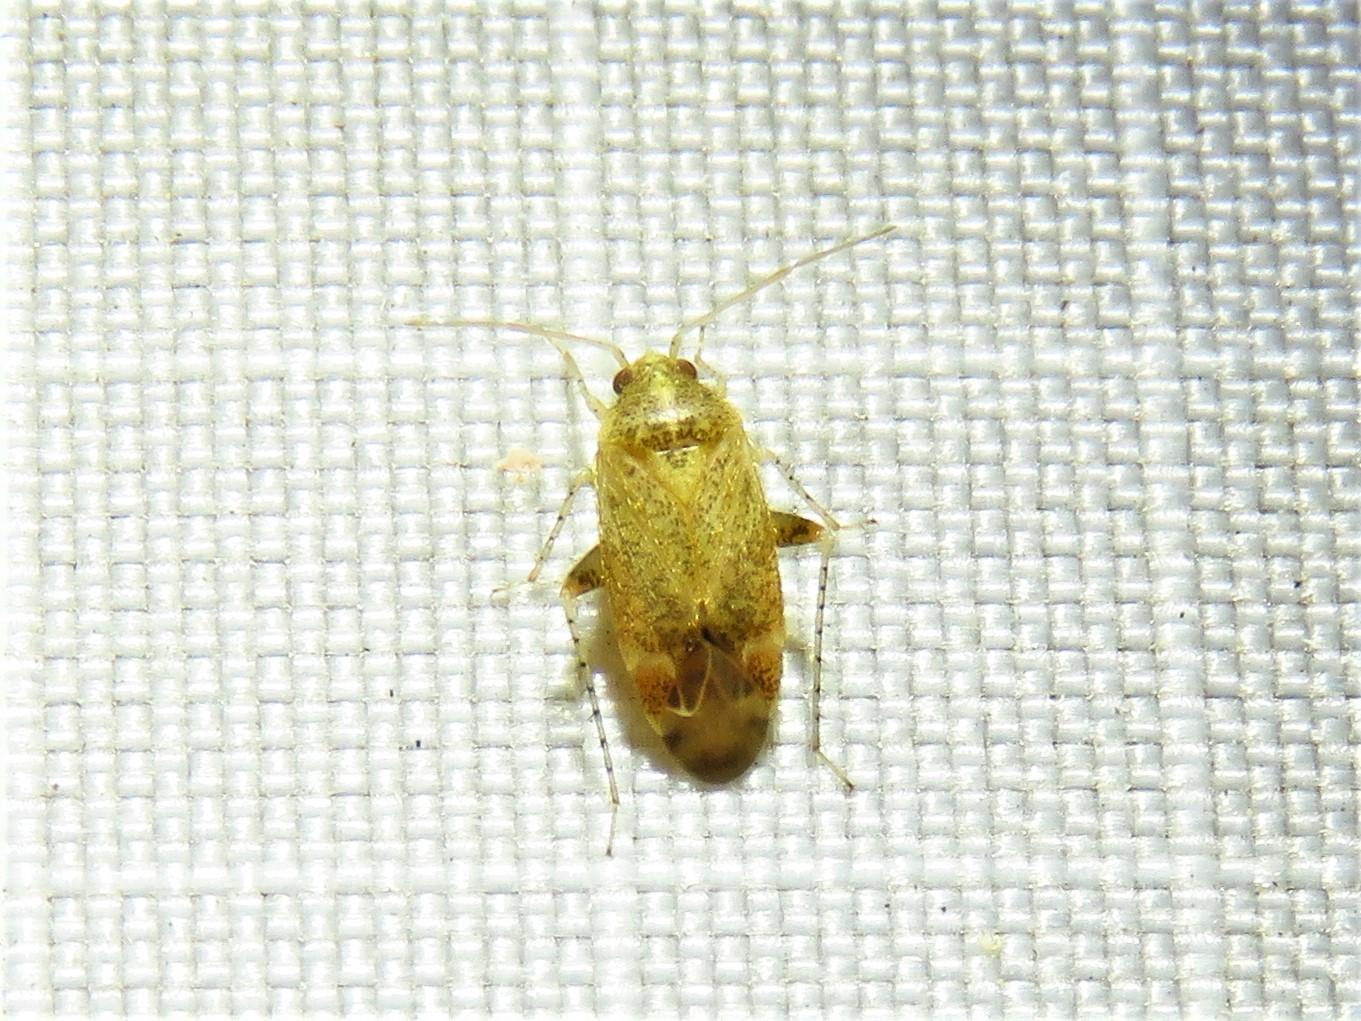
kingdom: Animalia
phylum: Arthropoda
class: Insecta
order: Hemiptera
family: Miridae
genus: Hamatophylus
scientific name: Hamatophylus guttulosus
